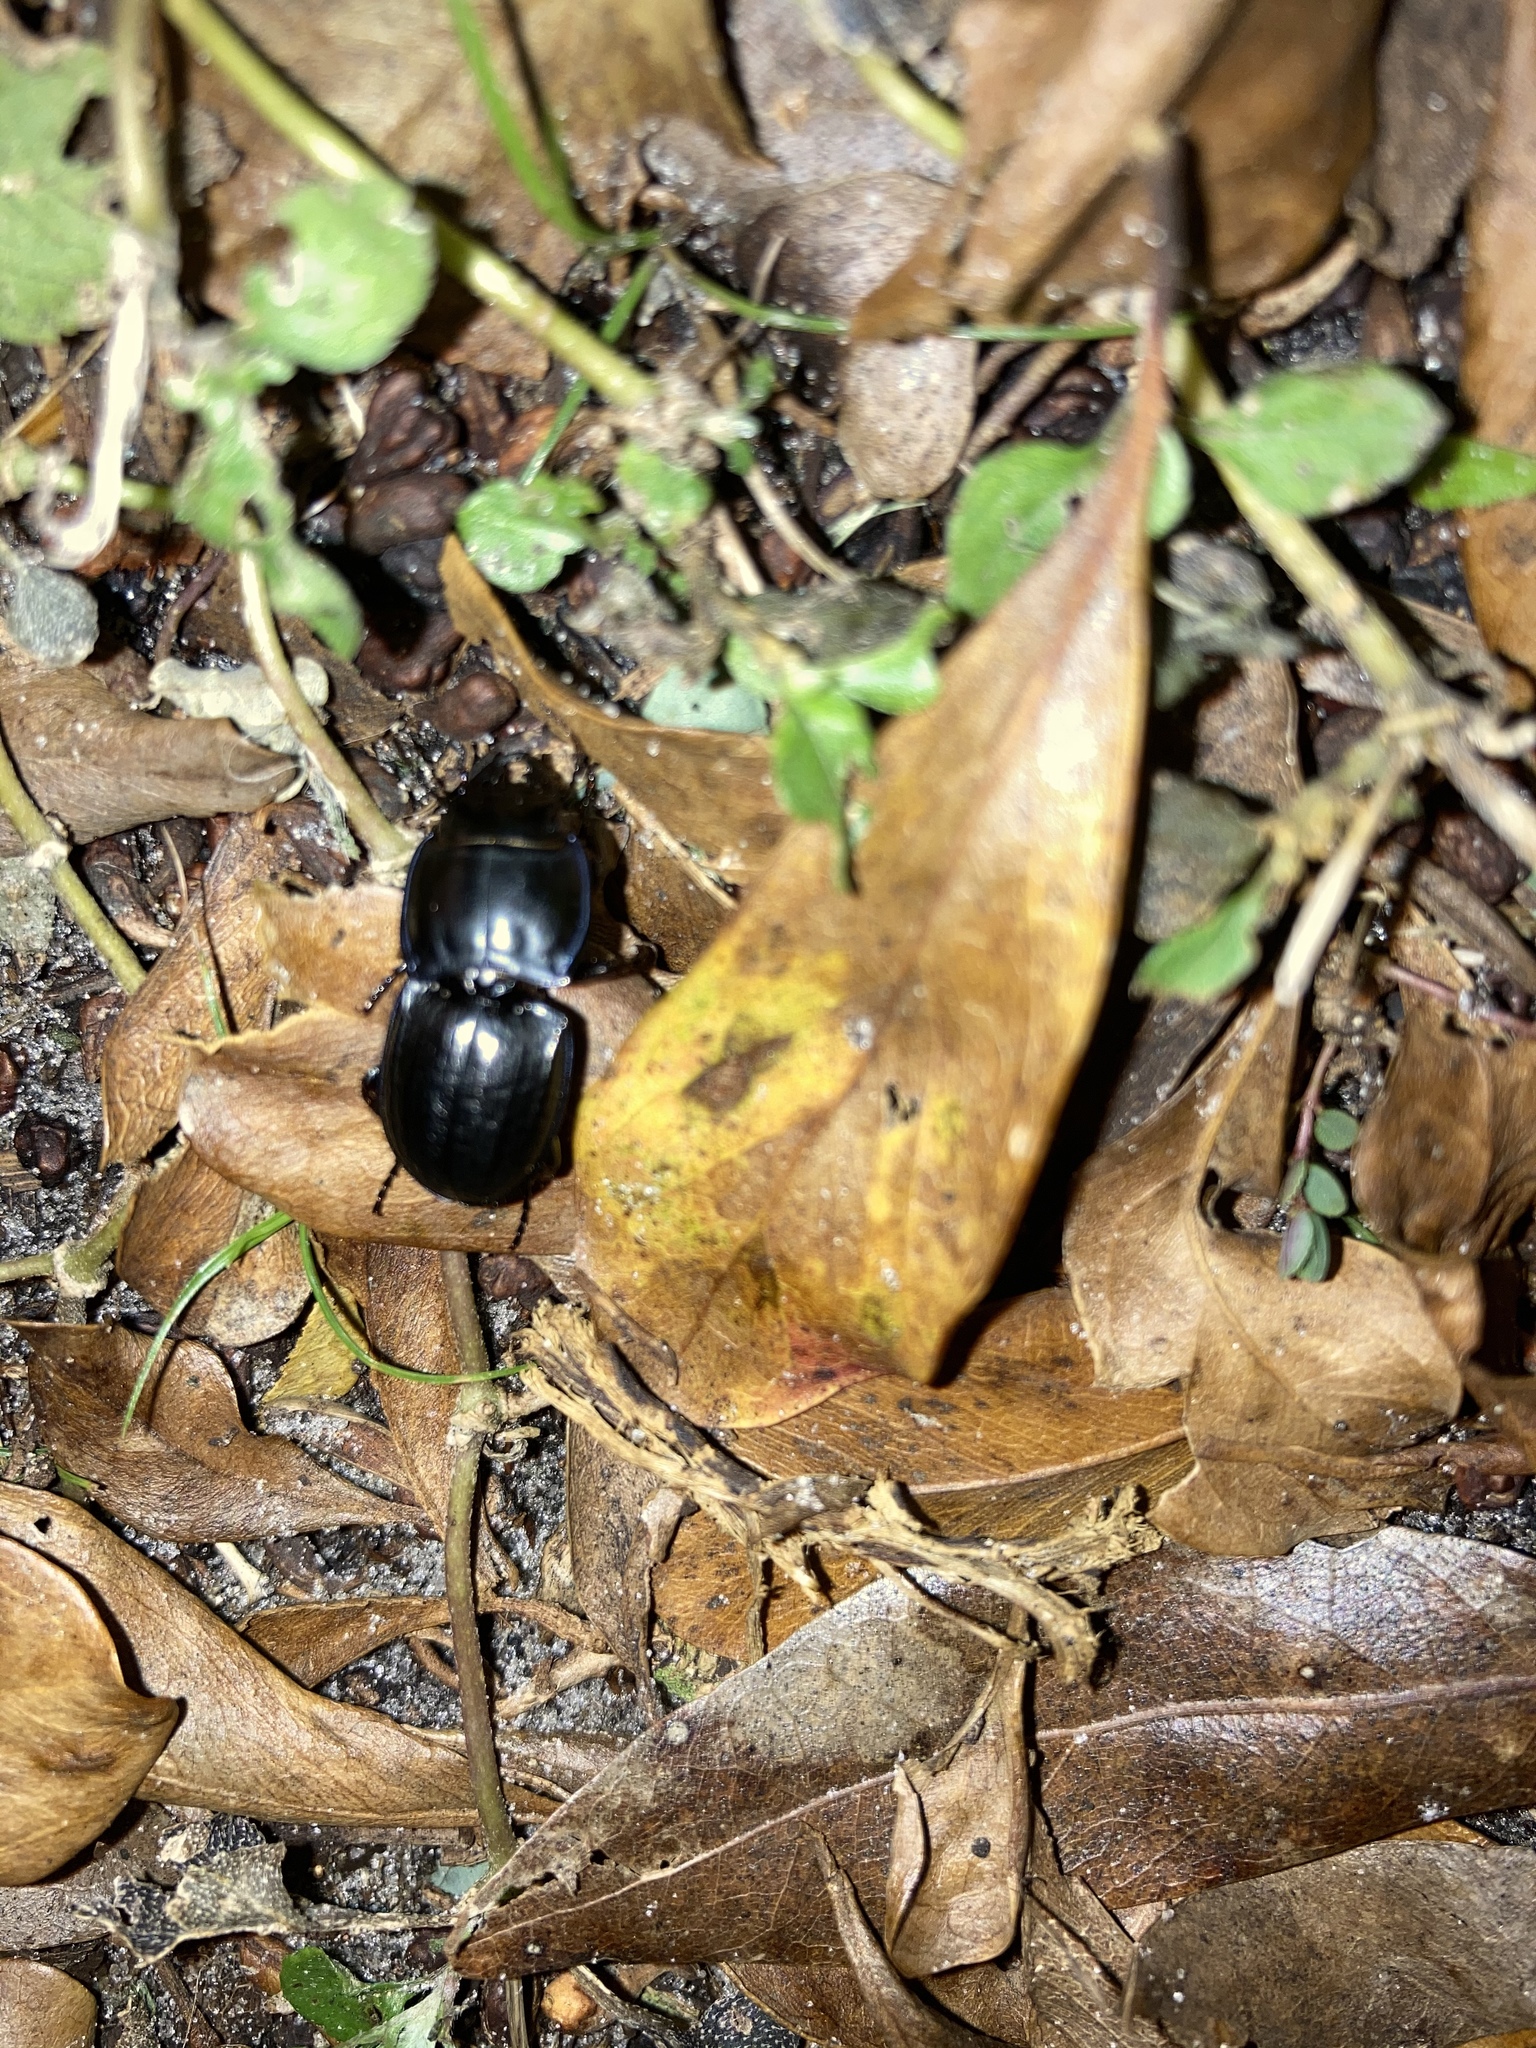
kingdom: Animalia
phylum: Arthropoda
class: Insecta
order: Coleoptera
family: Carabidae
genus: Pasimachus
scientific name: Pasimachus sublaevis
